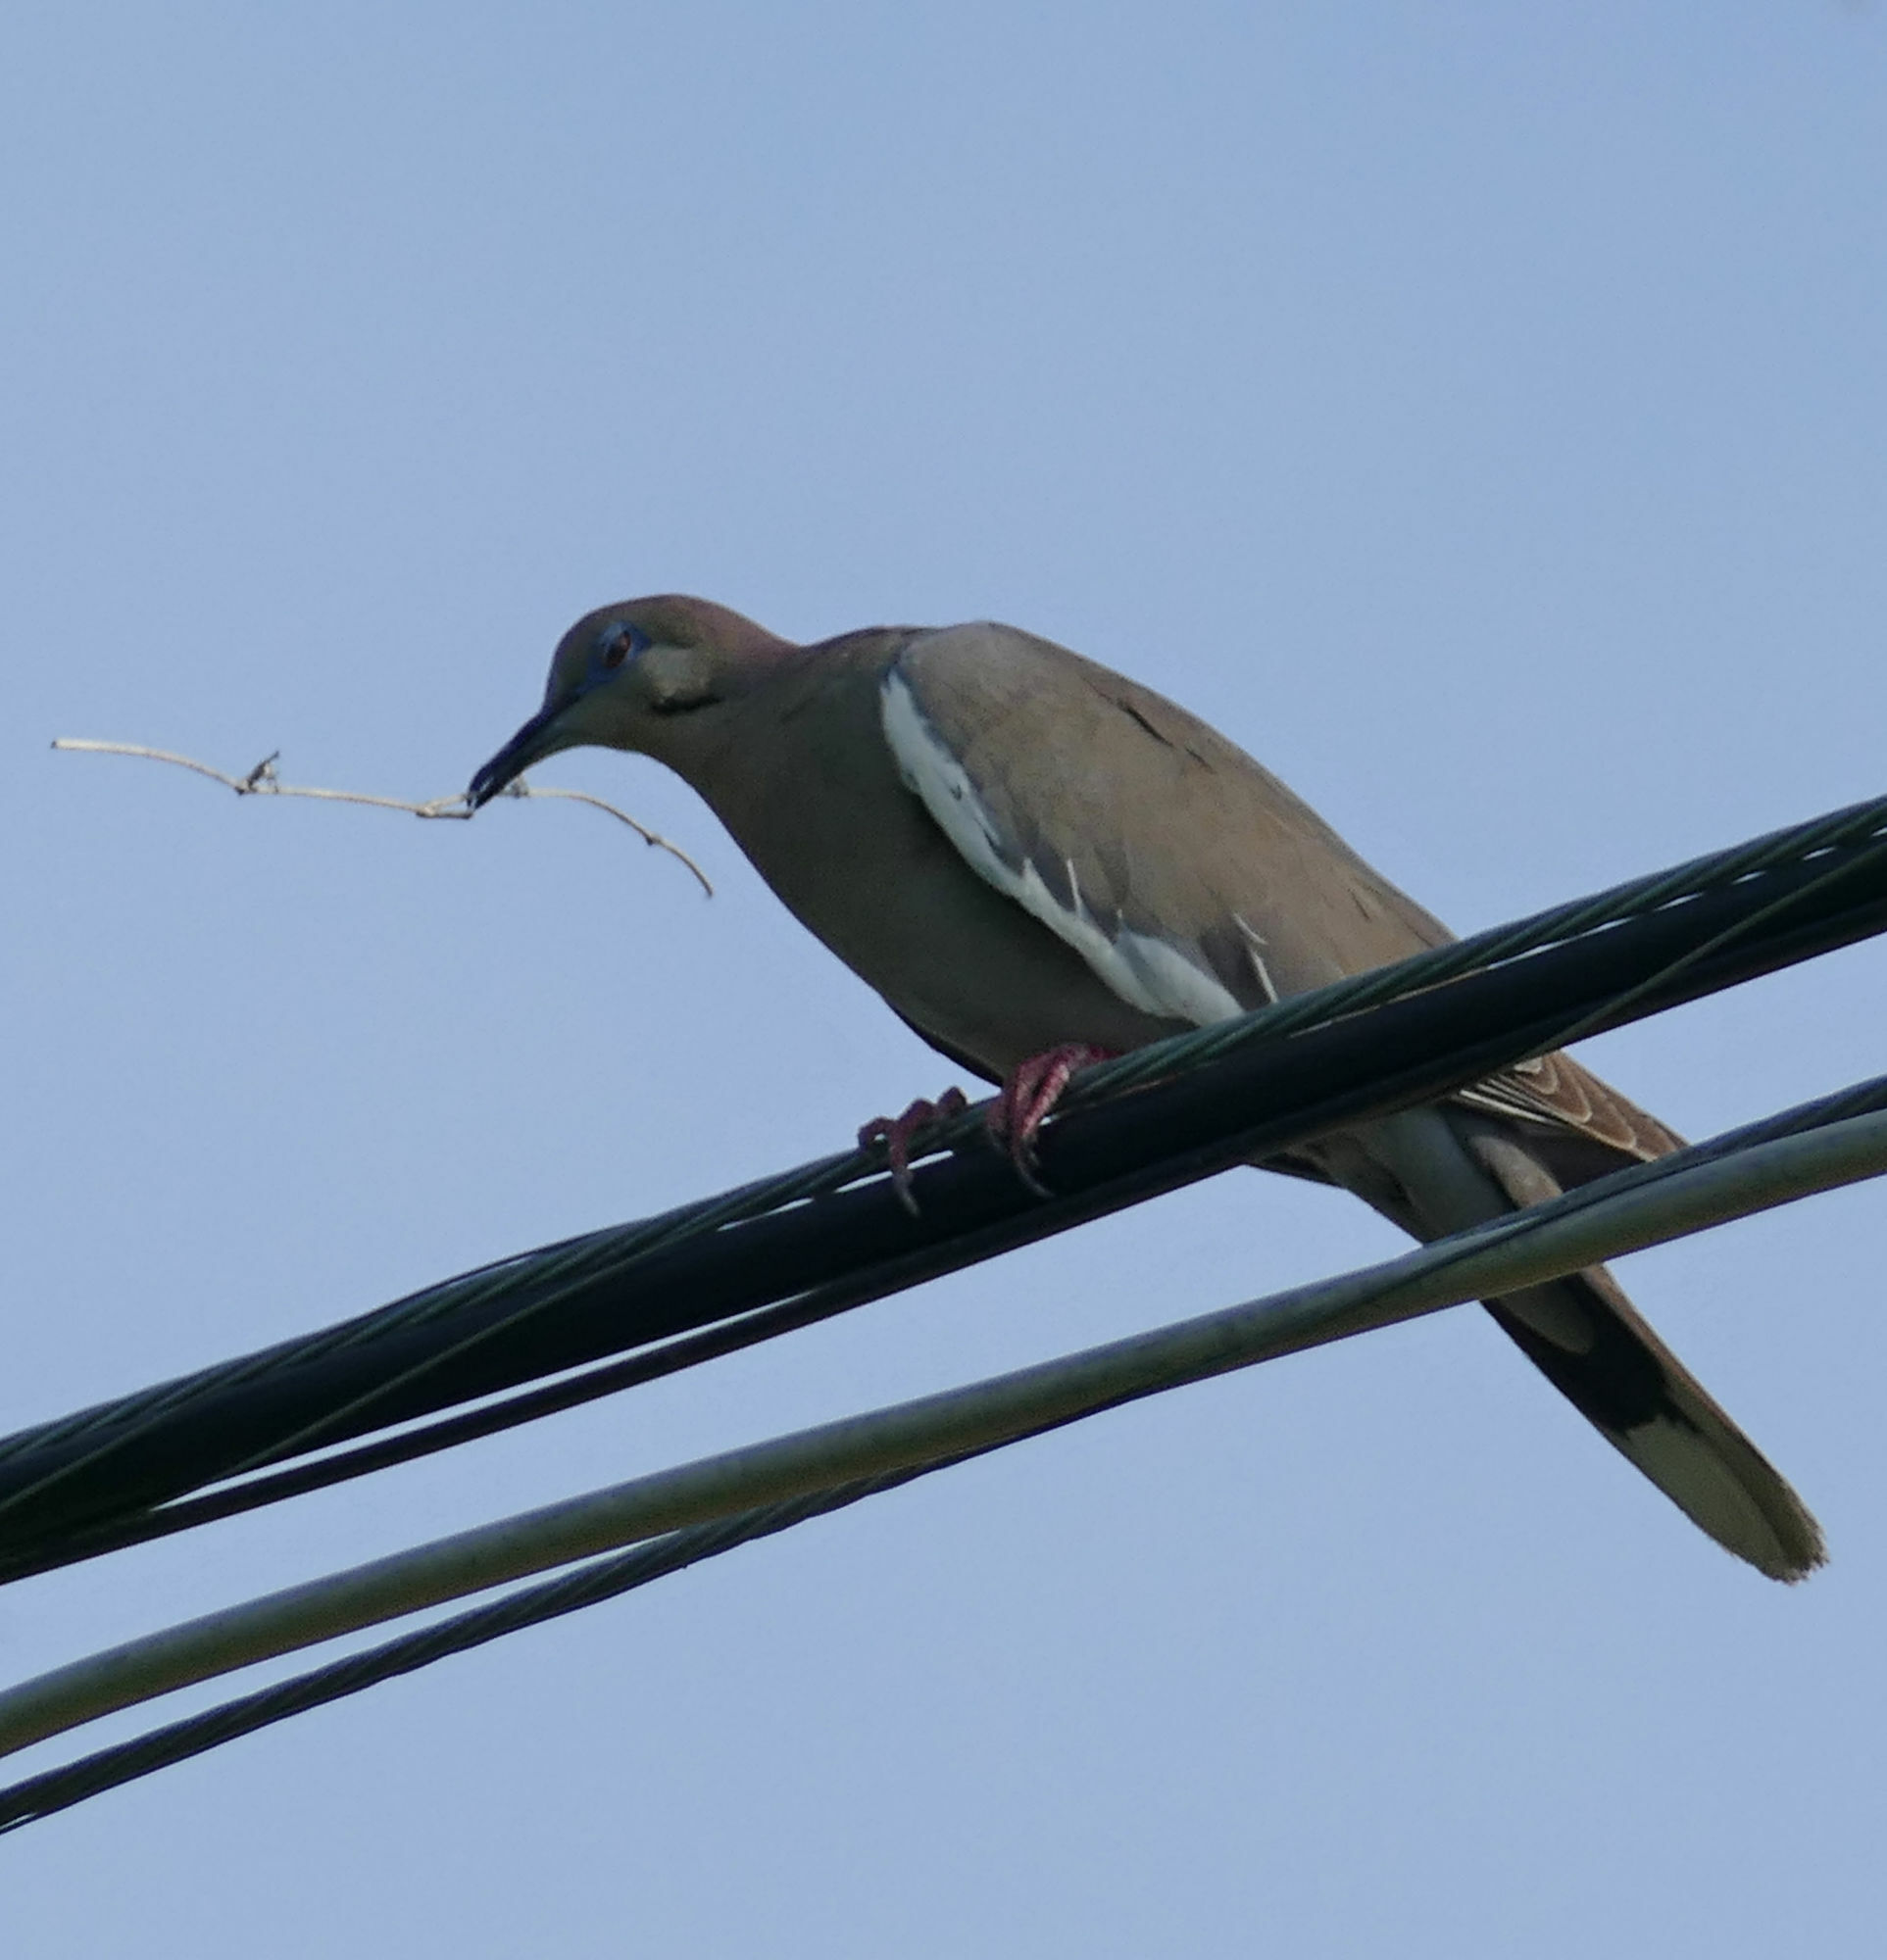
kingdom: Animalia
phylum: Chordata
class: Aves
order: Columbiformes
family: Columbidae
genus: Zenaida
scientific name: Zenaida asiatica
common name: White-winged dove
